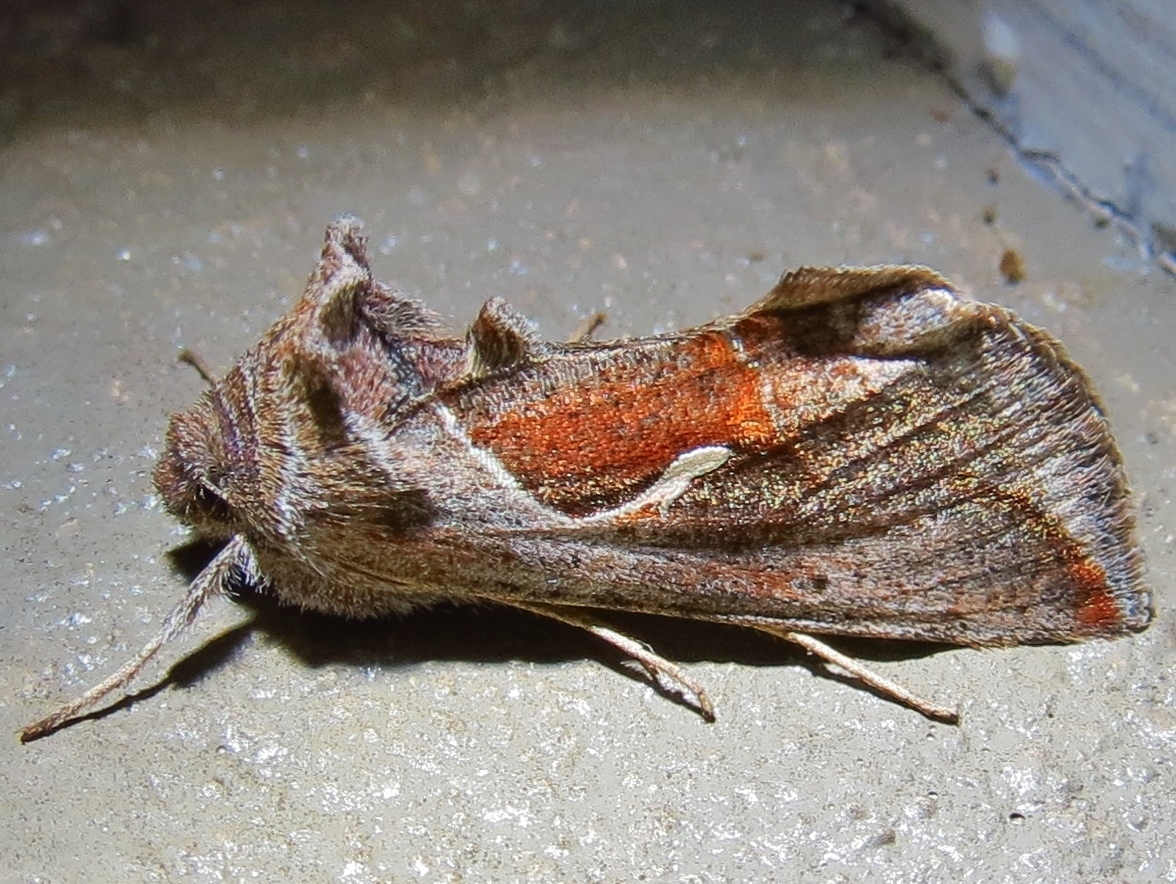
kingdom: Animalia
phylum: Arthropoda
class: Insecta
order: Lepidoptera
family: Noctuidae
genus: Anagrapha
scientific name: Anagrapha falcifera
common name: Celery looper
